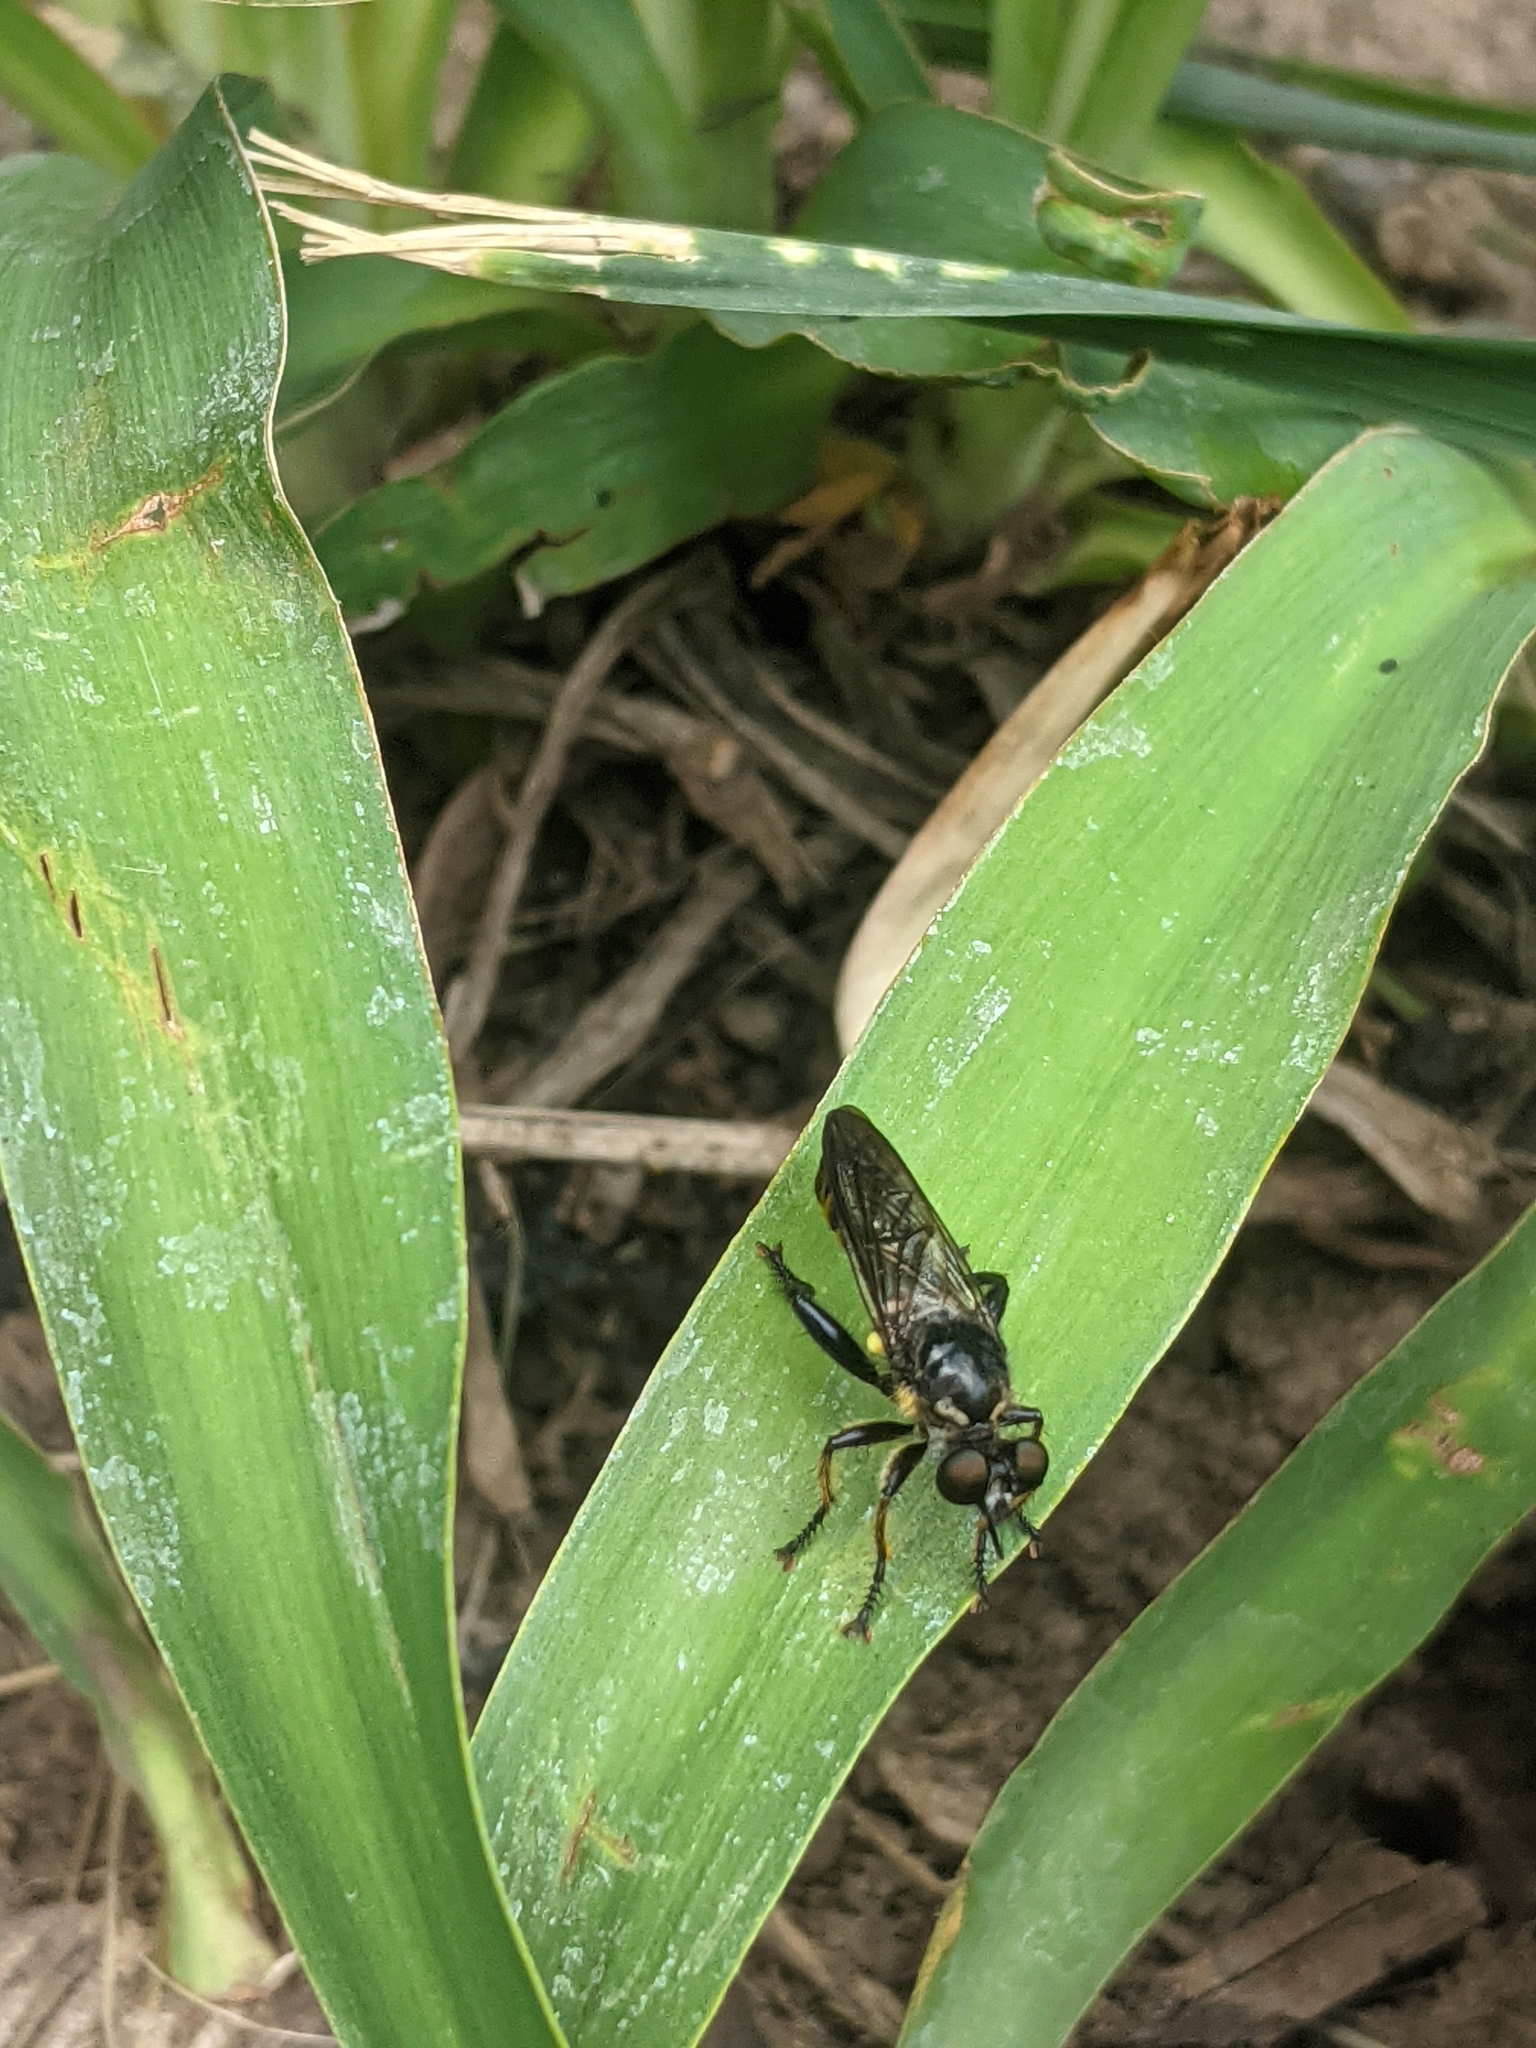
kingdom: Animalia
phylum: Arthropoda
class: Insecta
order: Diptera
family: Asilidae
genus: Lamyra
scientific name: Lamyra fimbriata
